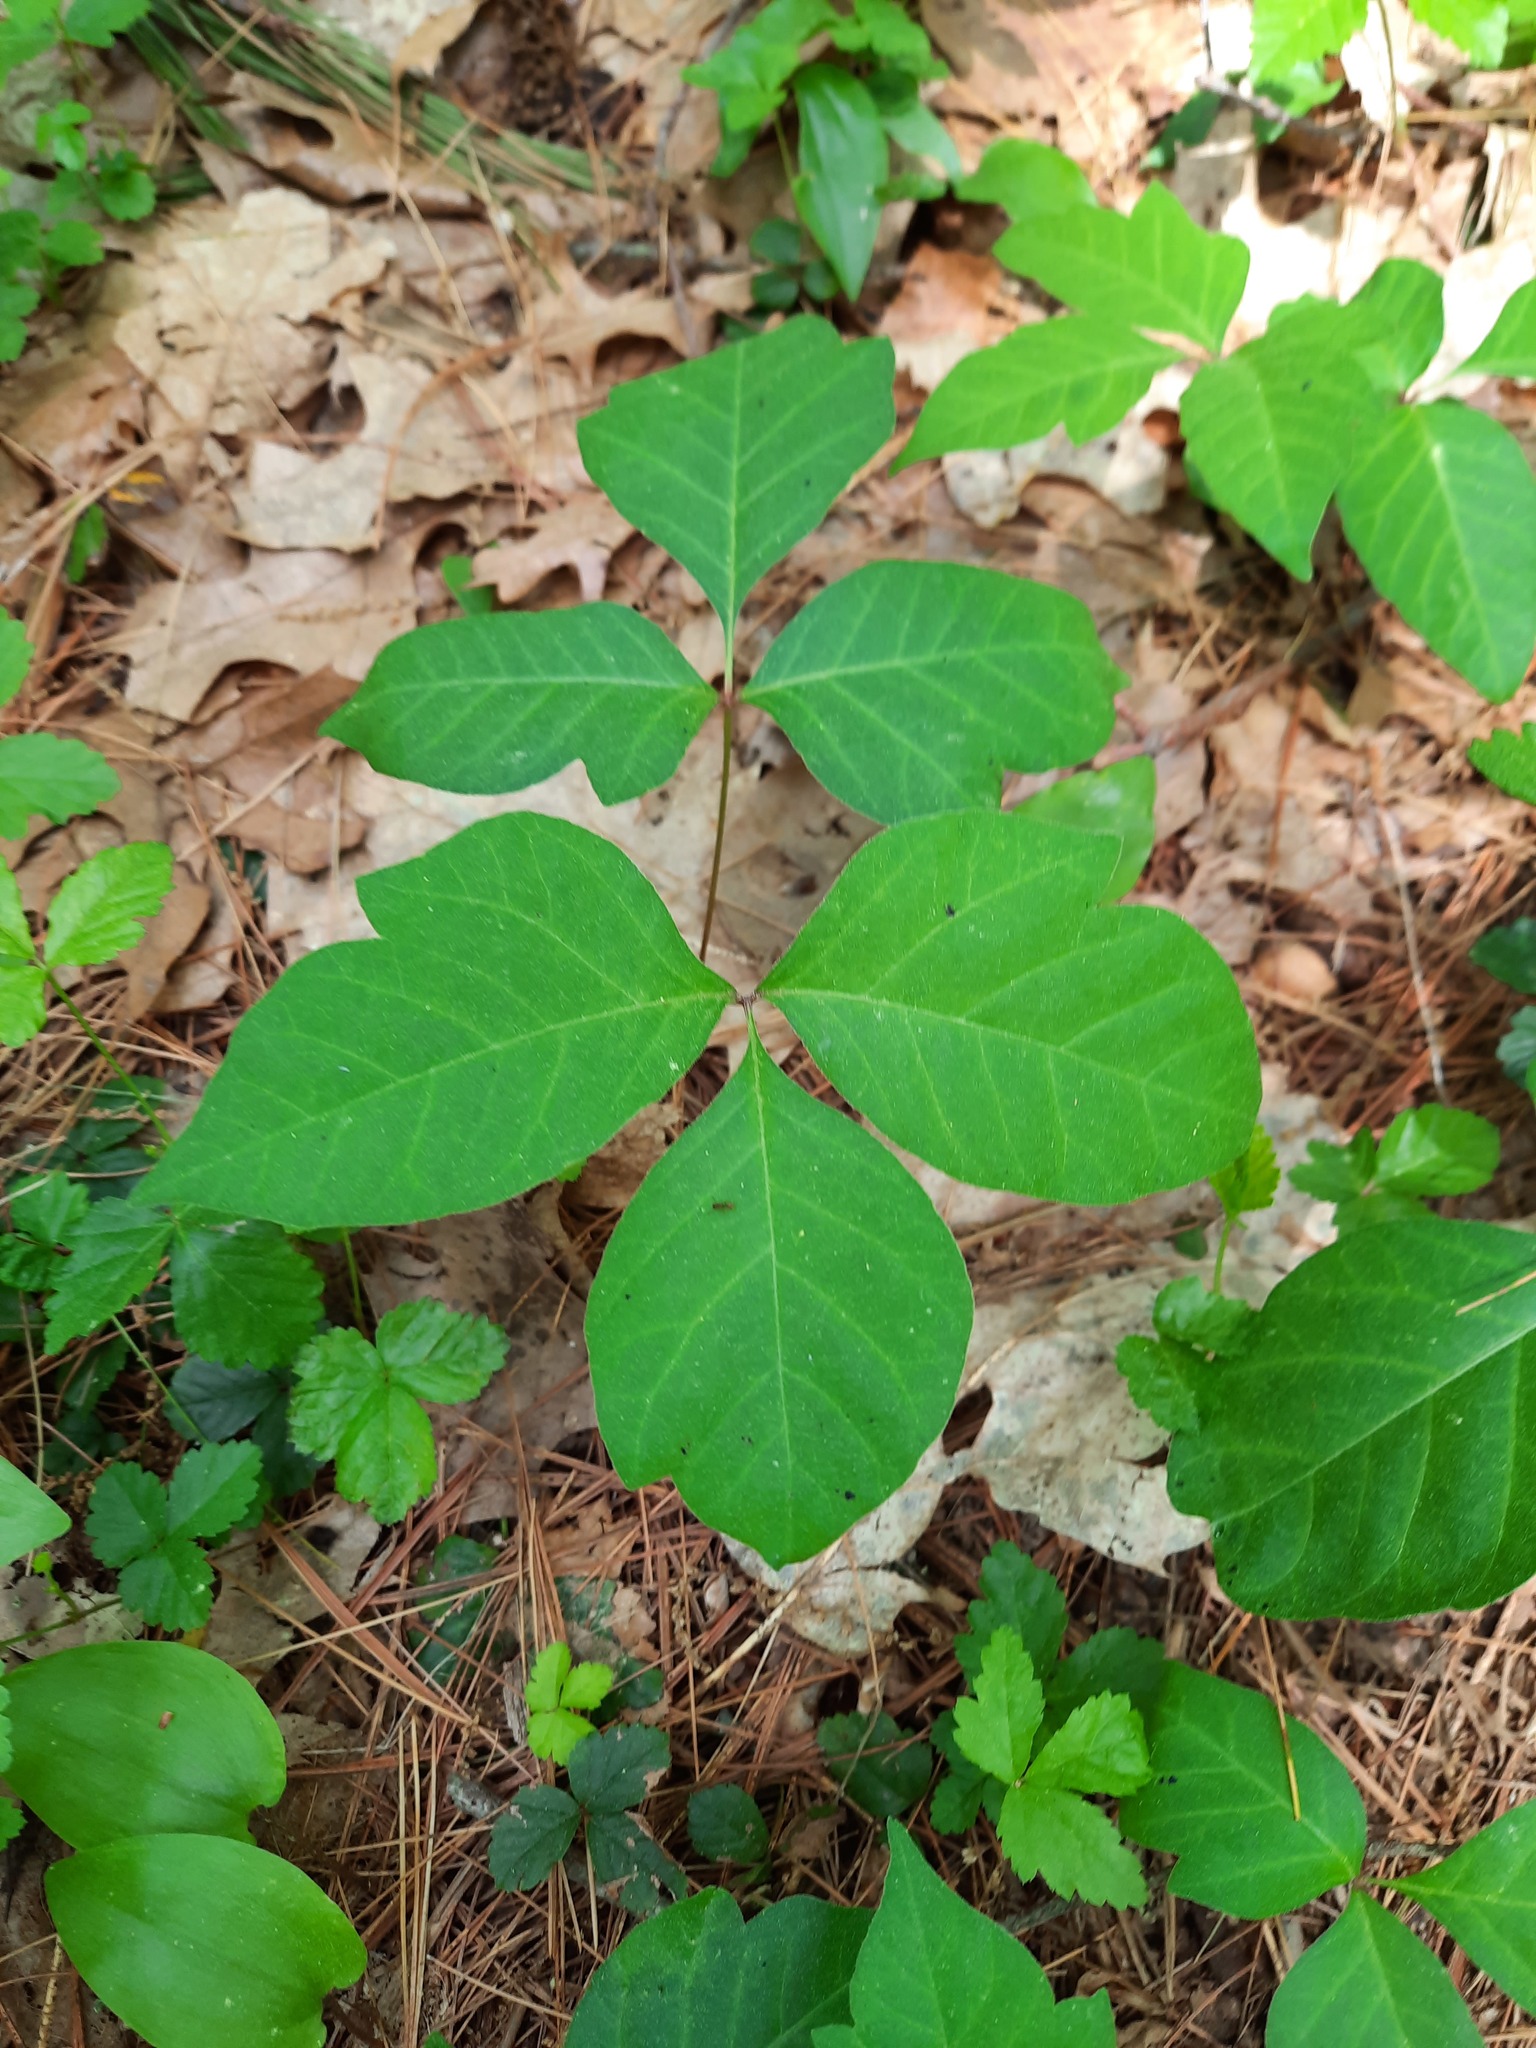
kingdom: Plantae
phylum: Tracheophyta
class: Magnoliopsida
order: Sapindales
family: Anacardiaceae
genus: Toxicodendron
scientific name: Toxicodendron radicans
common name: Poison ivy
